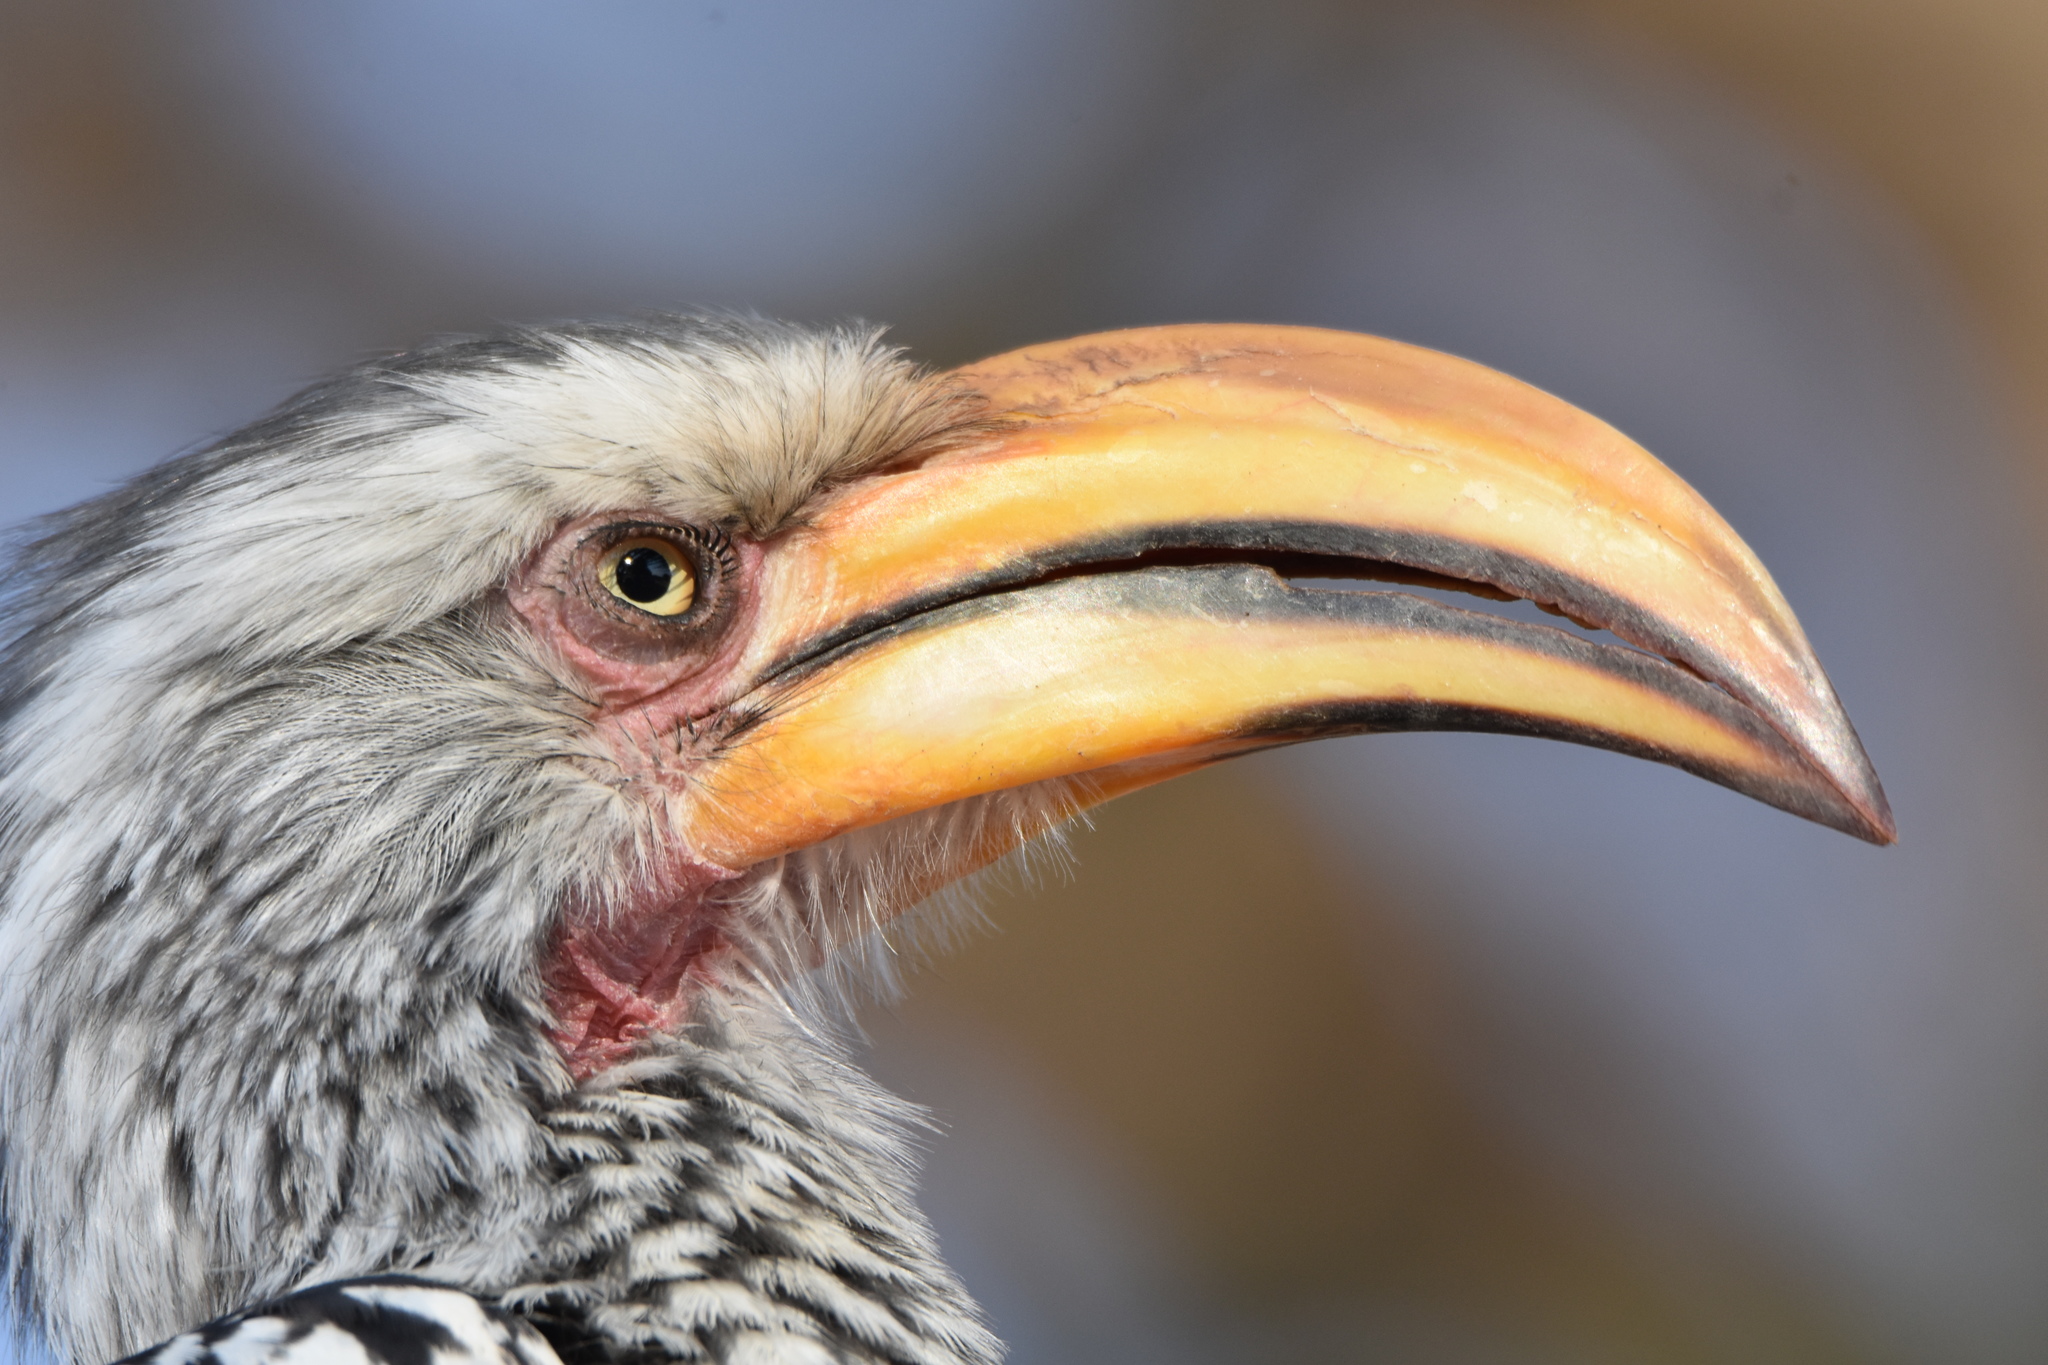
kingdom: Animalia
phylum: Chordata
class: Aves
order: Bucerotiformes
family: Bucerotidae
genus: Tockus
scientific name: Tockus leucomelas
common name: Southern yellow-billed hornbill
